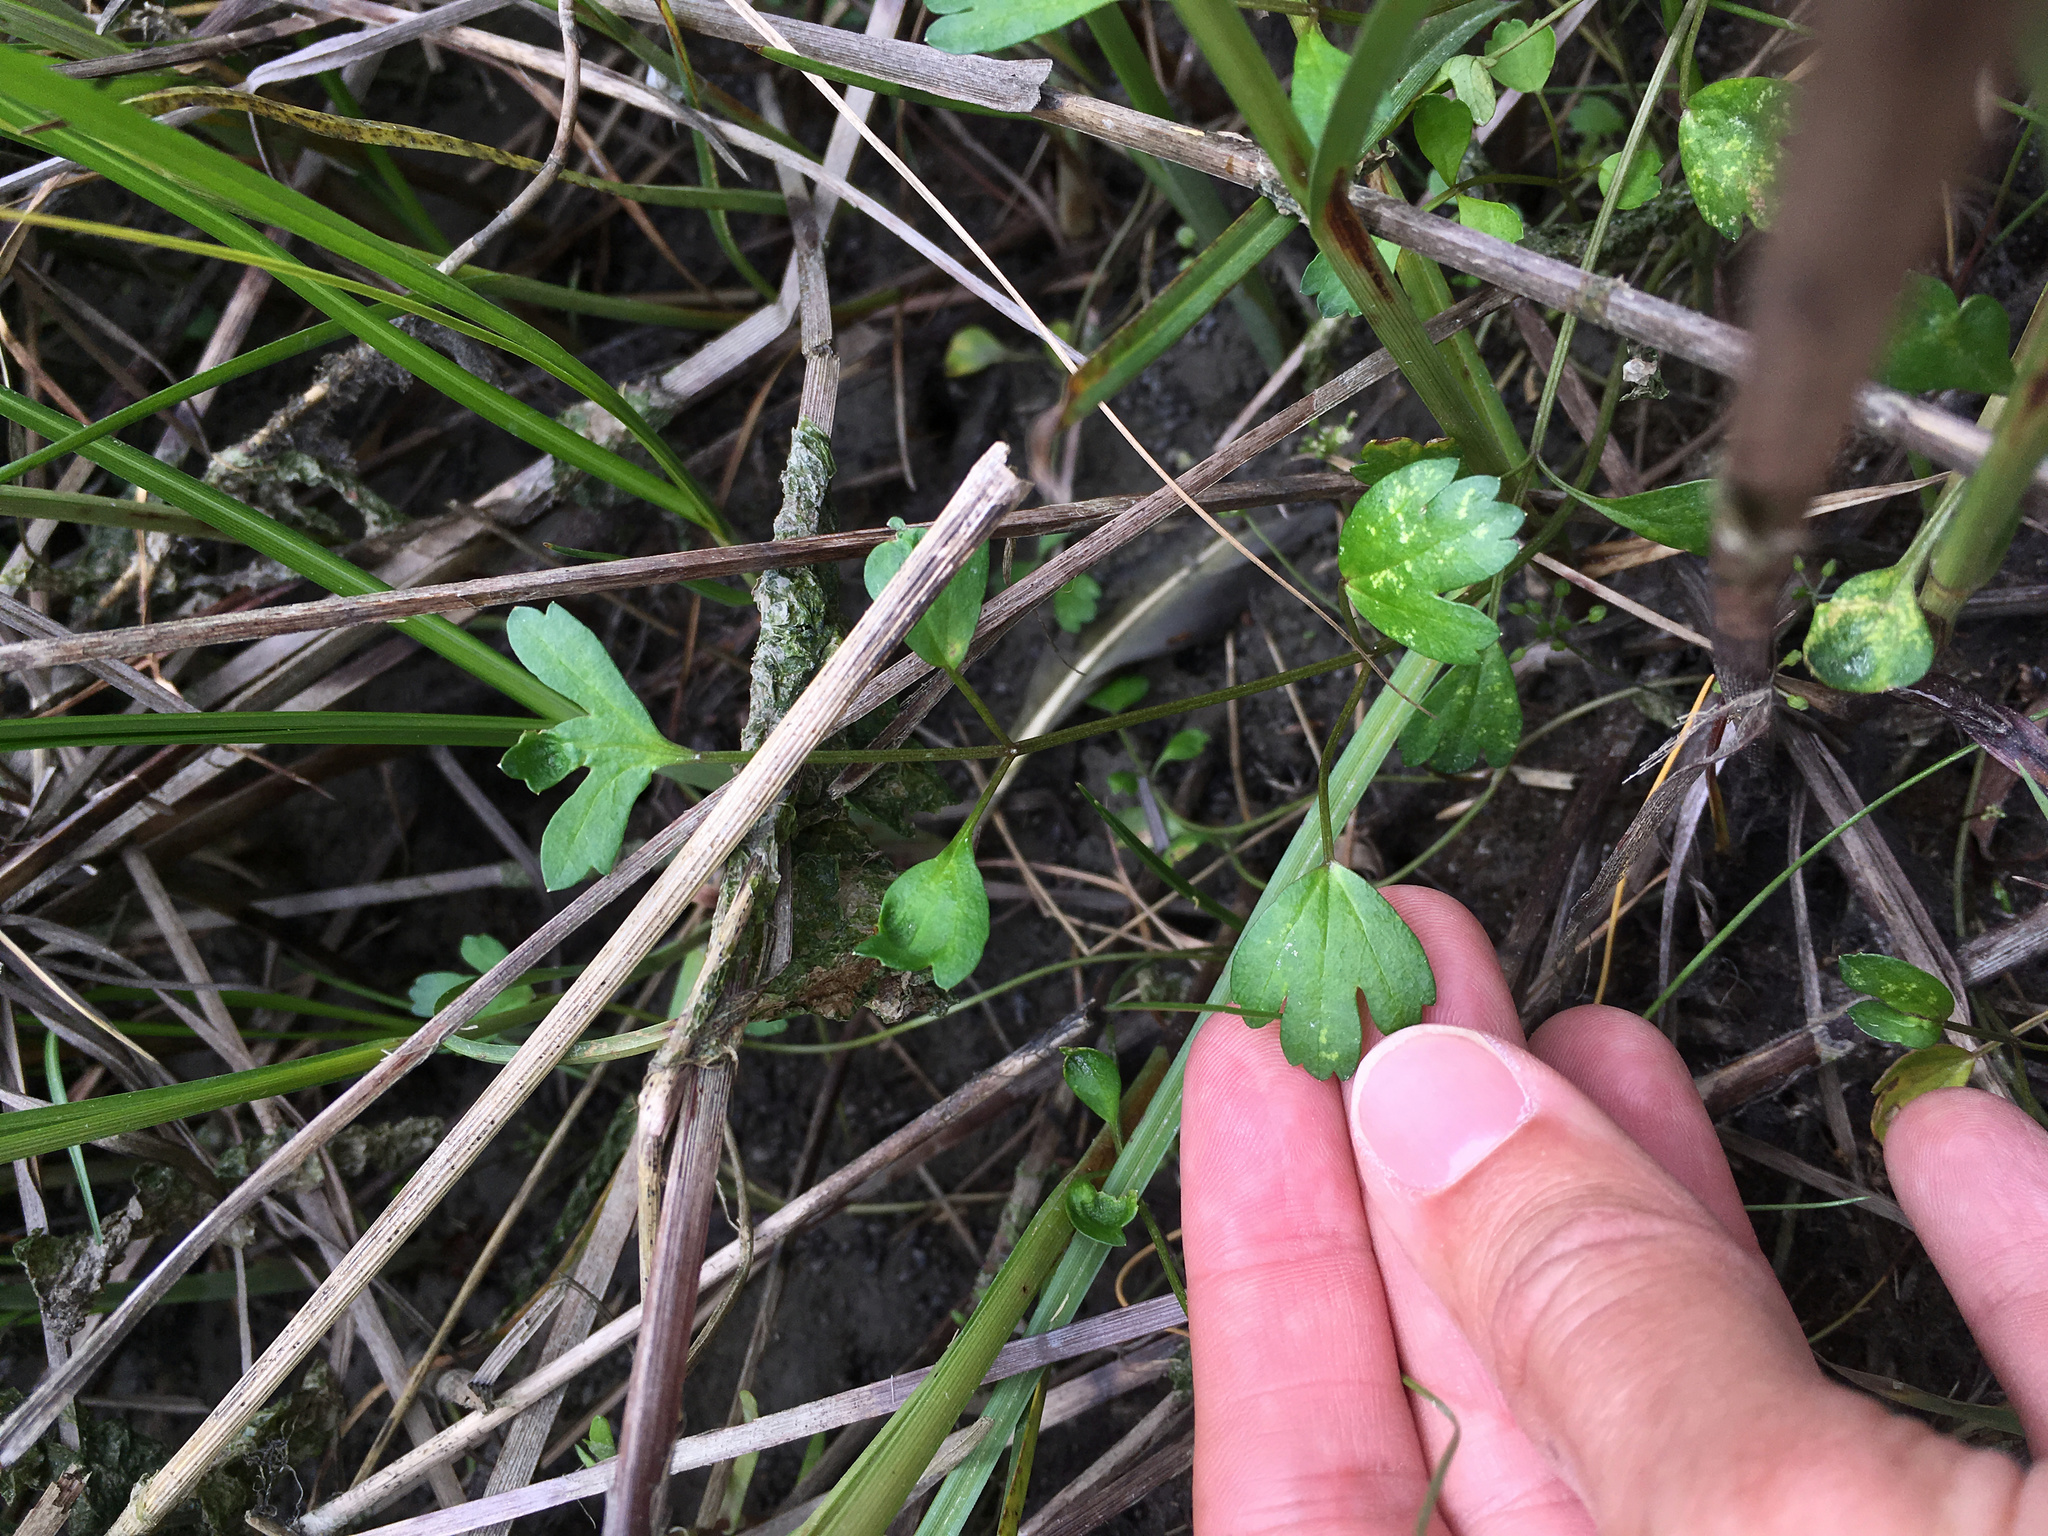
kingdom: Plantae
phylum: Tracheophyta
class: Magnoliopsida
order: Apiales
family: Apiaceae
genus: Apium
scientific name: Apium prostratum
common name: Prostrate marshwort
